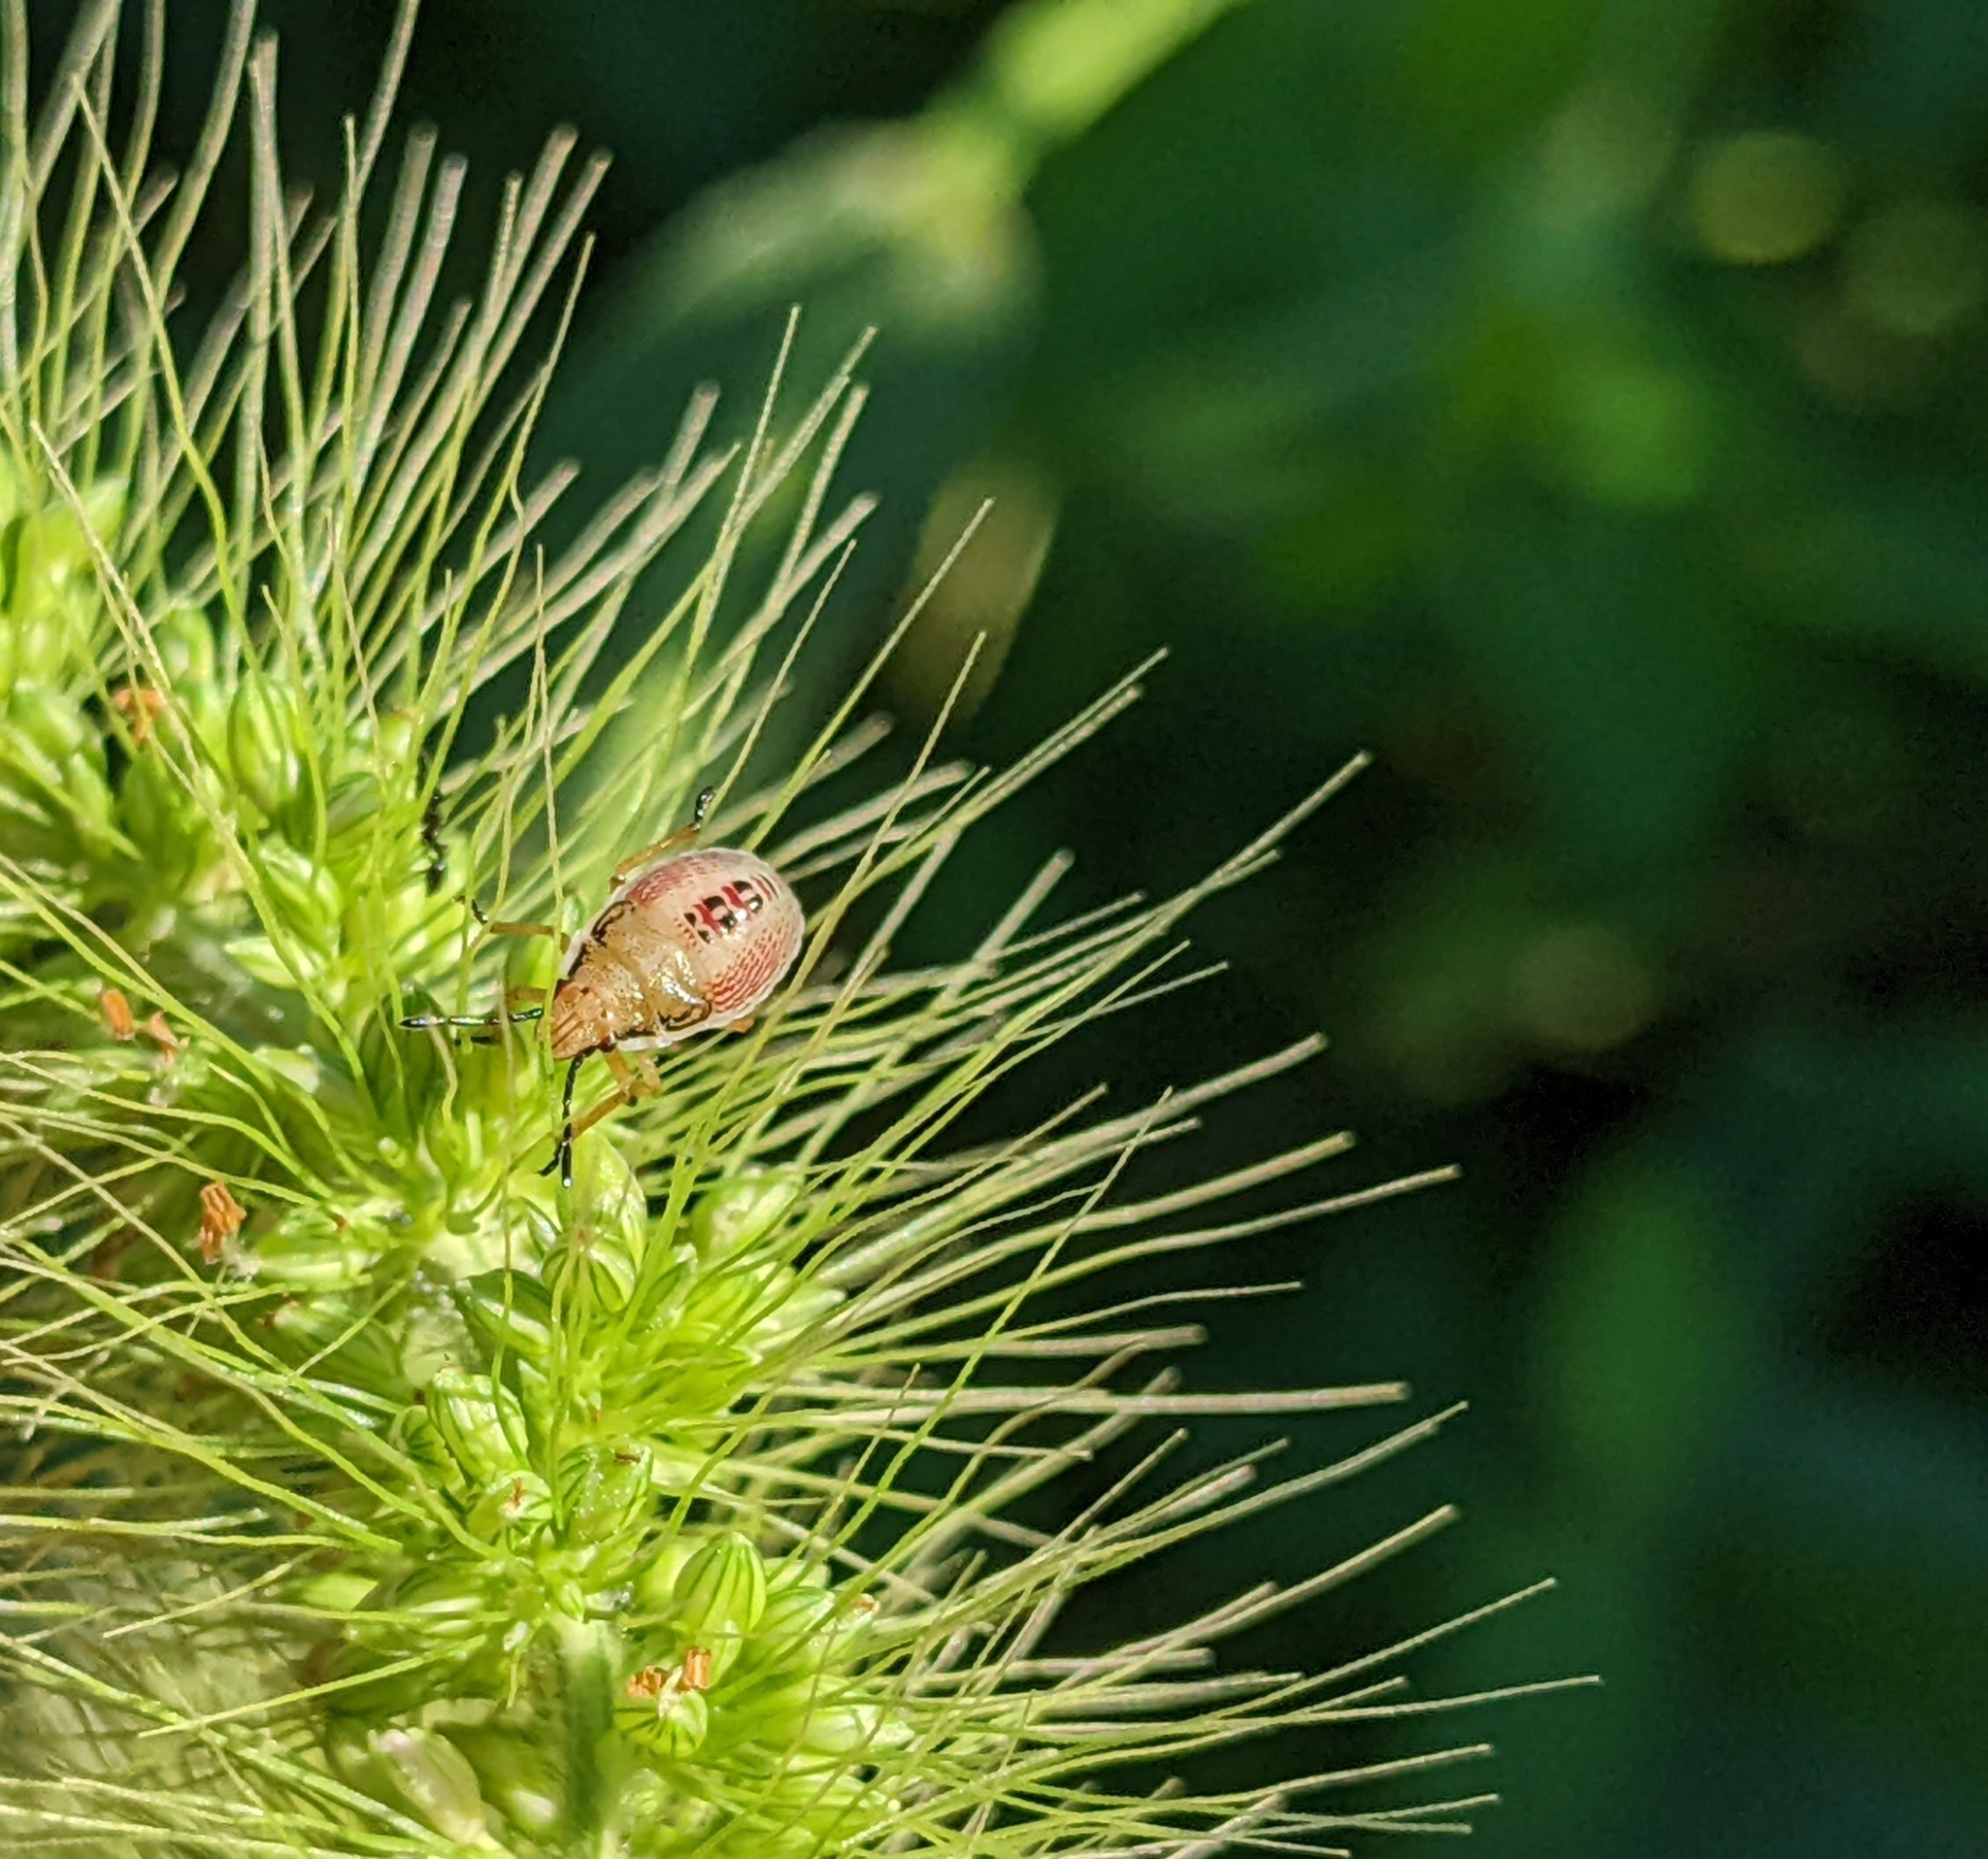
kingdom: Animalia
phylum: Arthropoda
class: Insecta
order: Hemiptera
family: Pentatomidae
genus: Oebalus
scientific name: Oebalus pugnax
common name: Rice stink bug
